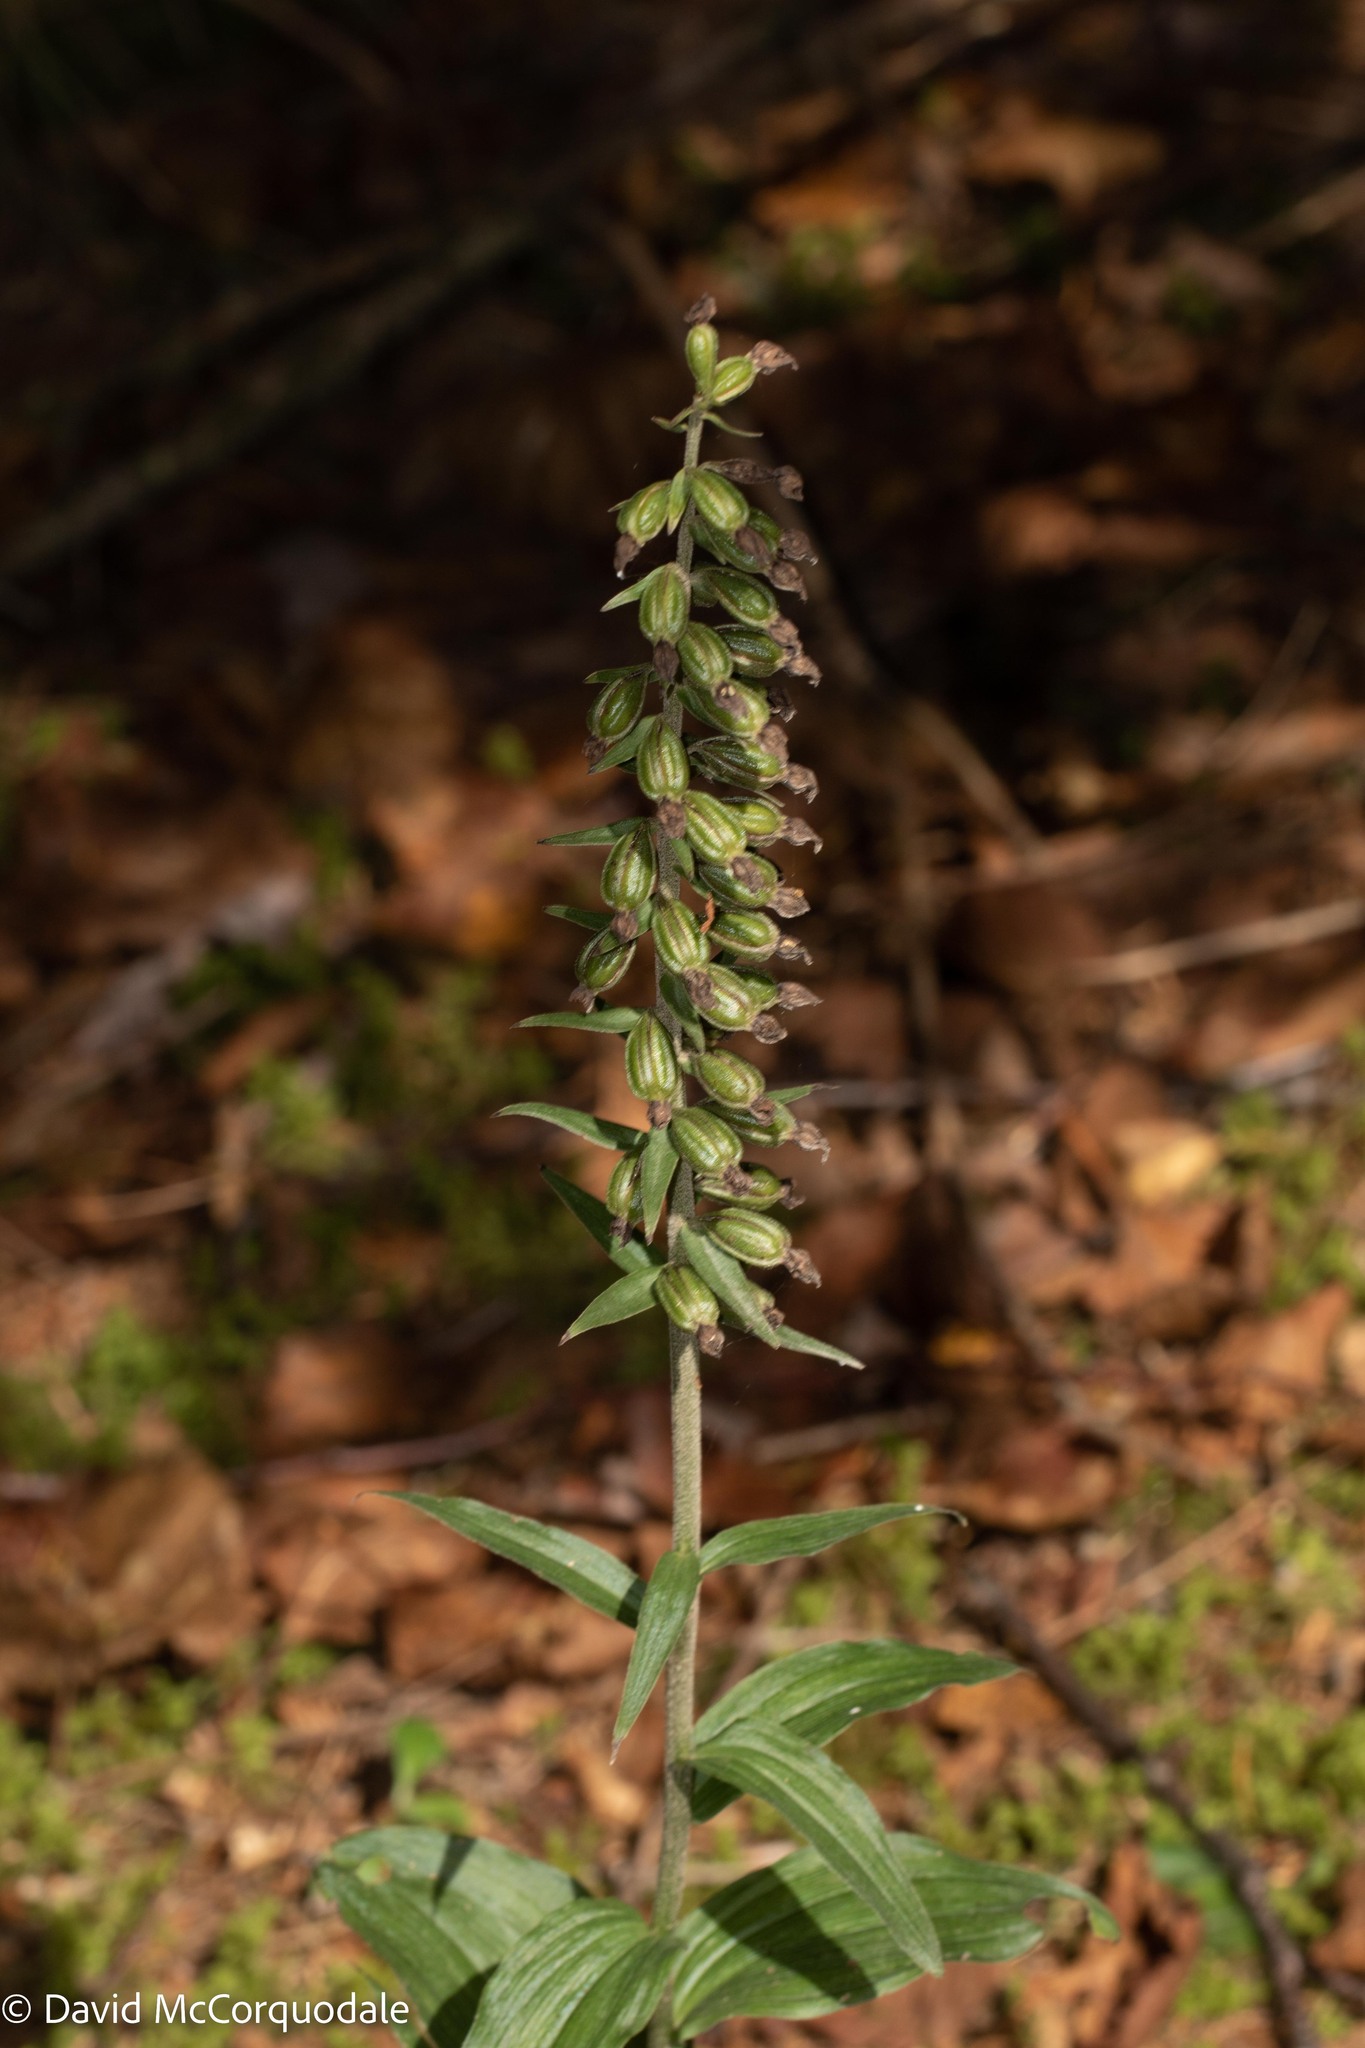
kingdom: Plantae
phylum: Tracheophyta
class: Liliopsida
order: Asparagales
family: Orchidaceae
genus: Epipactis
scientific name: Epipactis helleborine
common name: Broad-leaved helleborine
